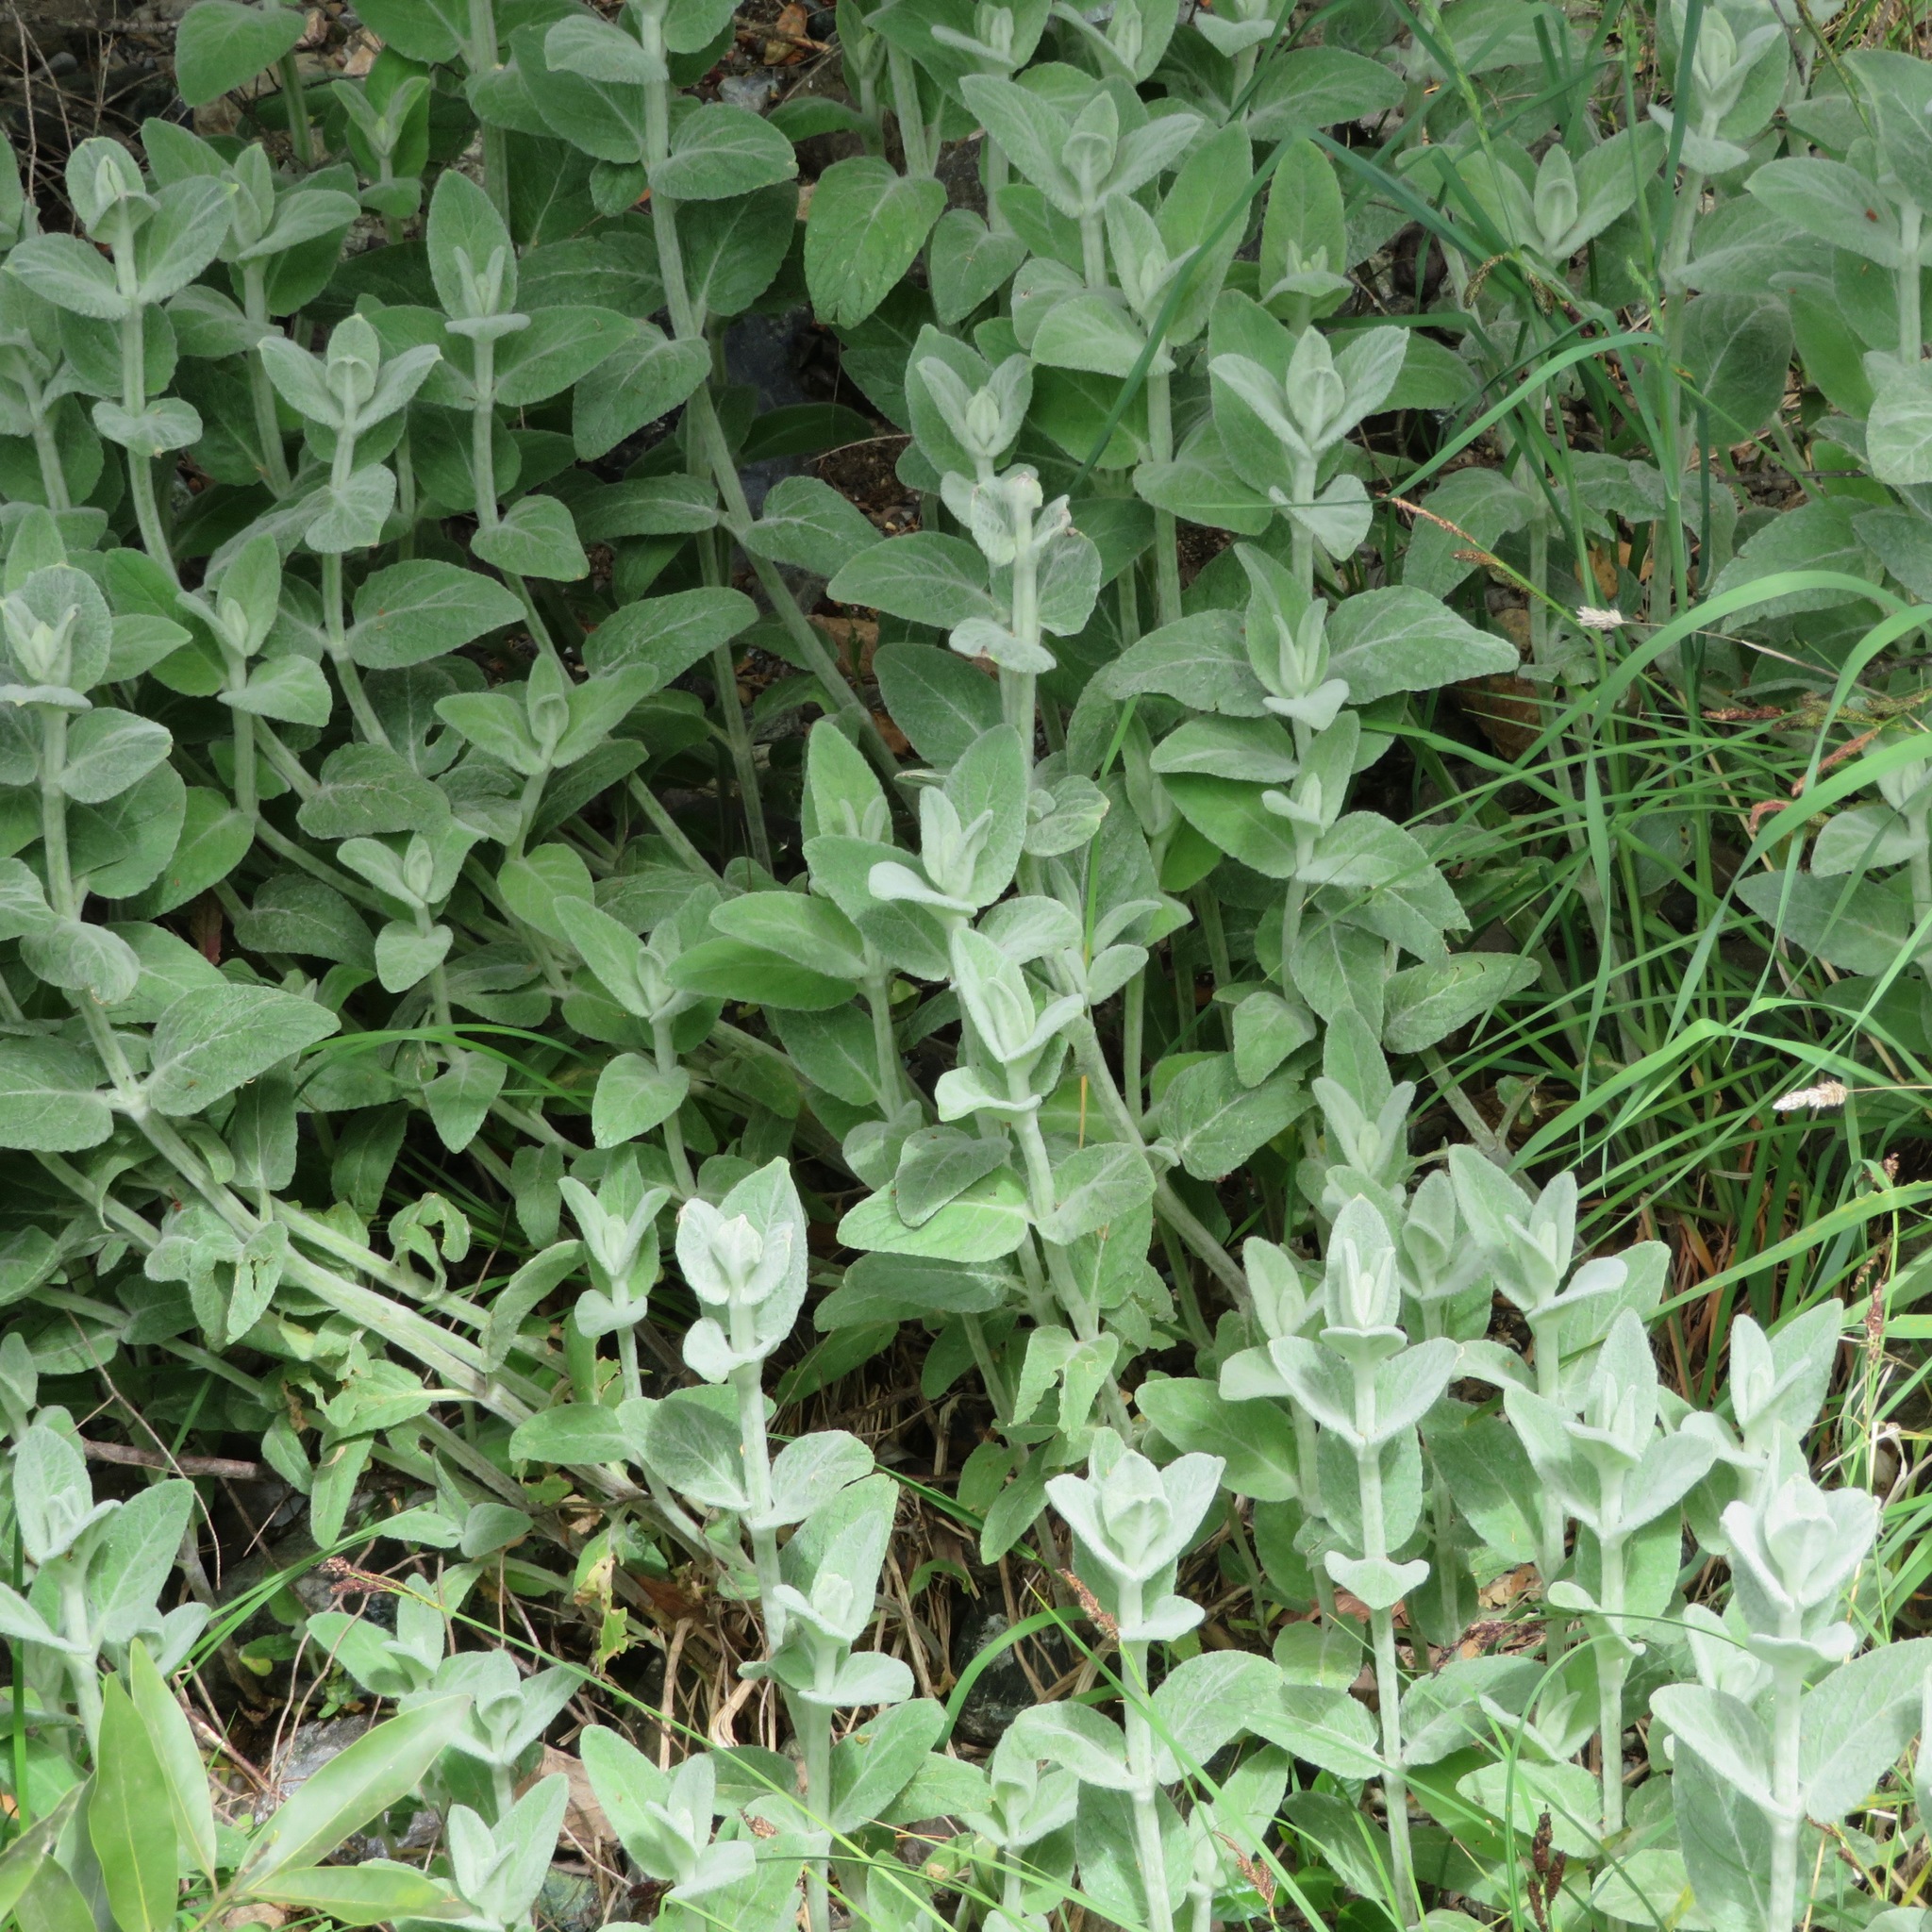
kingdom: Plantae
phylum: Tracheophyta
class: Magnoliopsida
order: Lamiales
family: Lamiaceae
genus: Stachys
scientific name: Stachys albens
